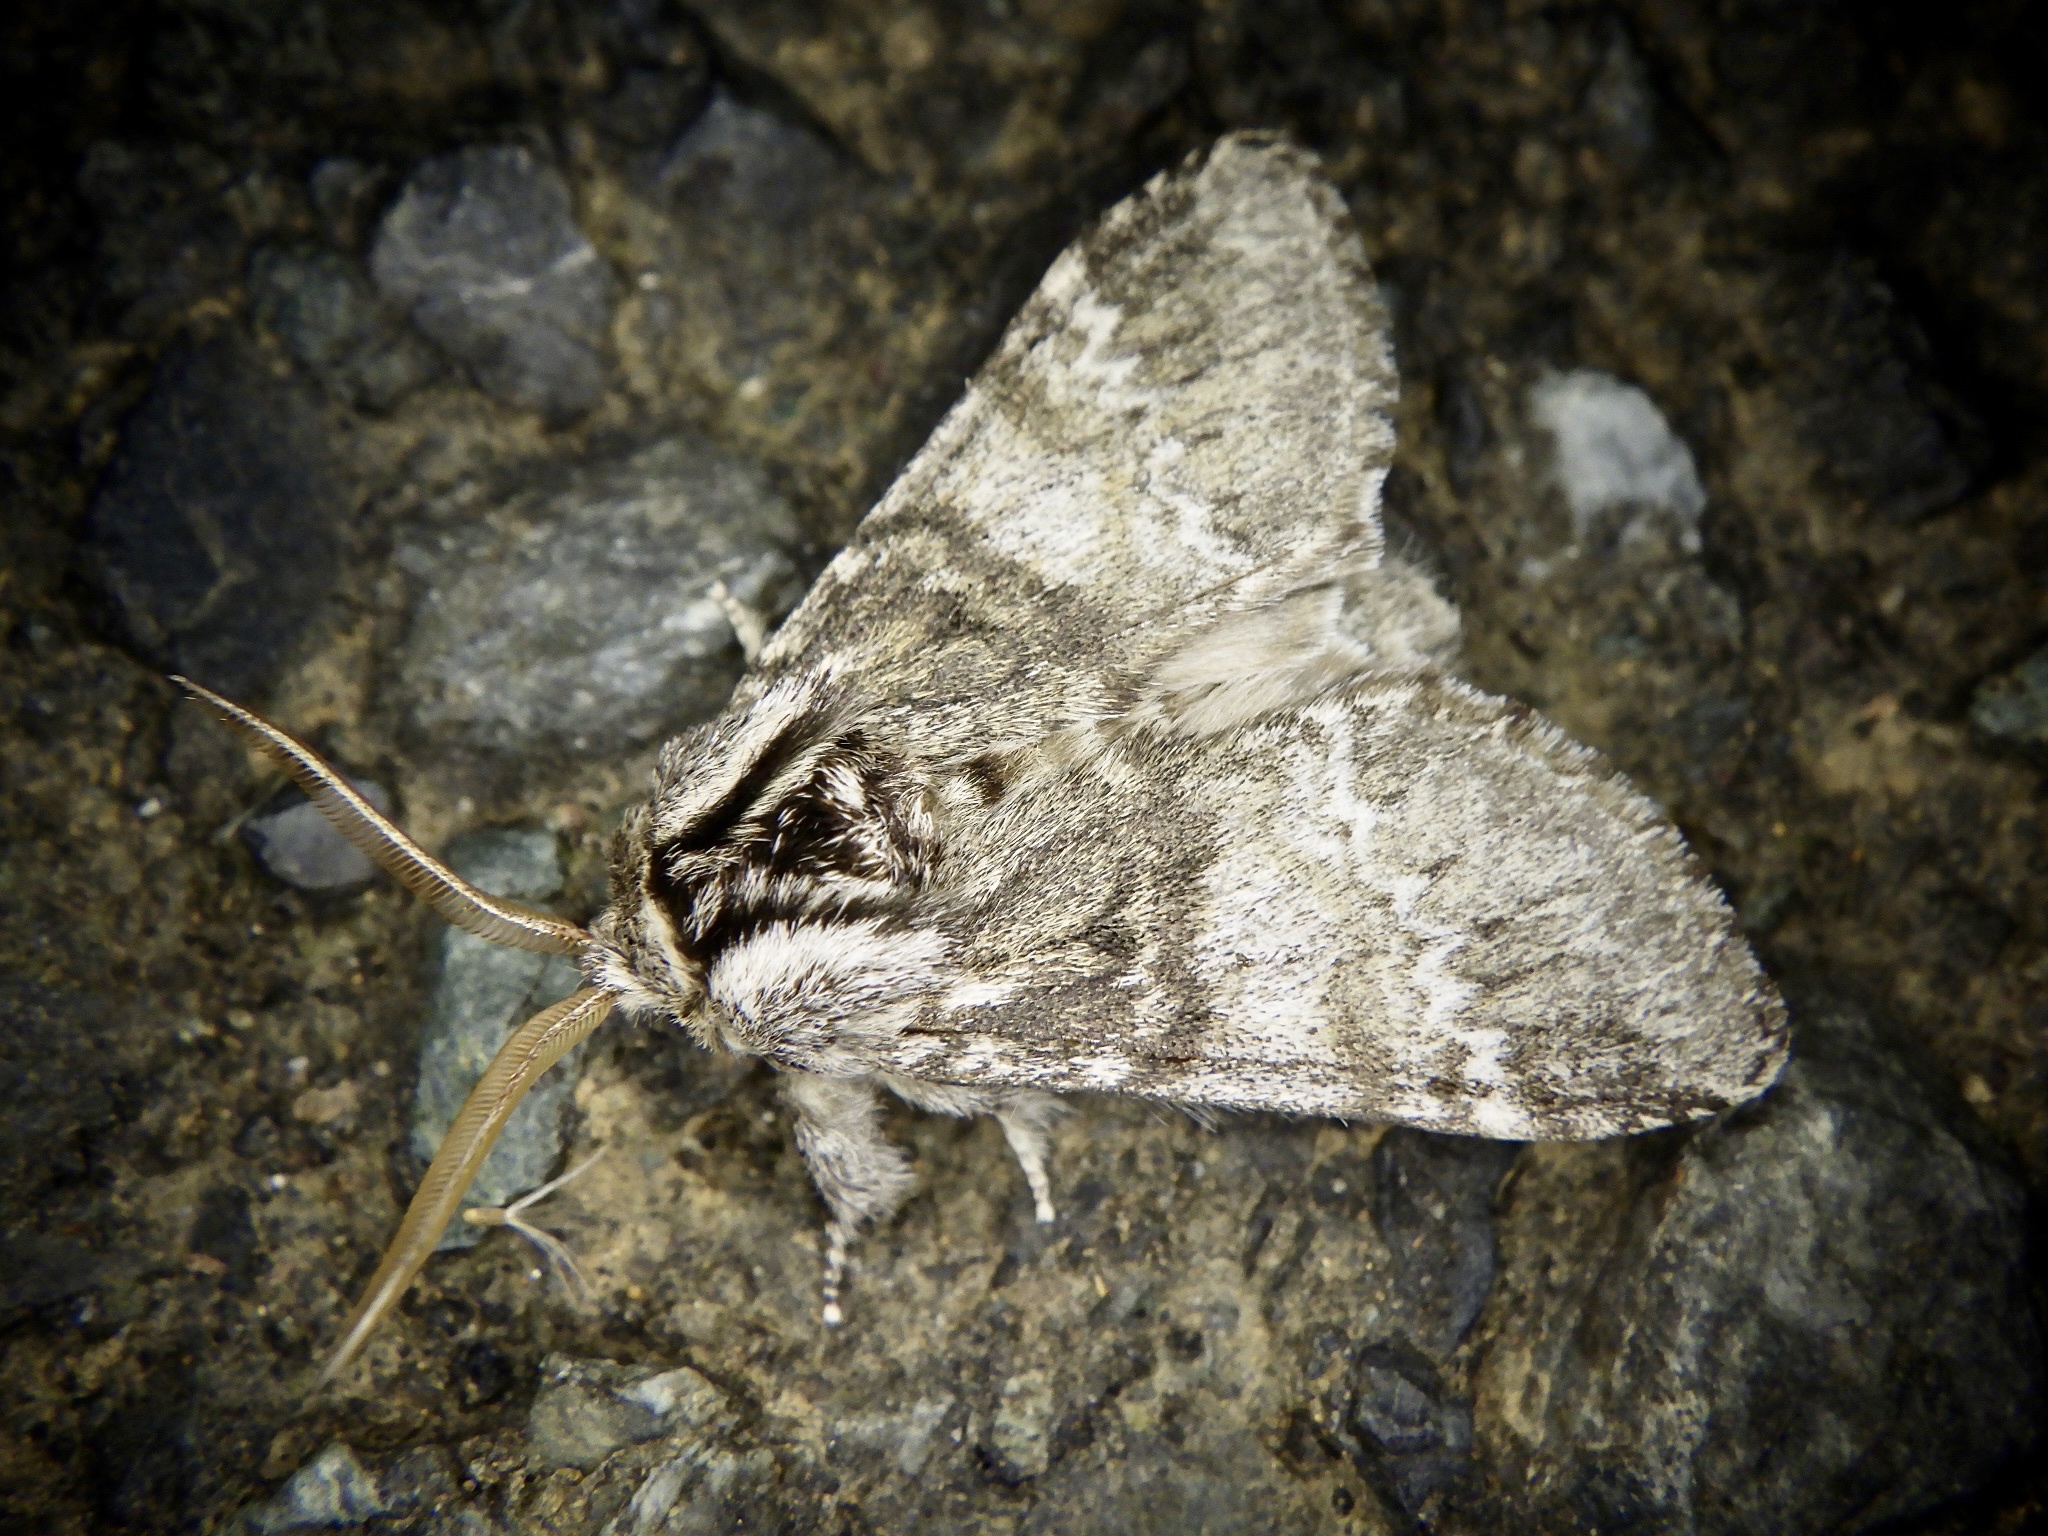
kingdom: Animalia
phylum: Arthropoda
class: Insecta
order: Lepidoptera
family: Notodontidae
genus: Drymonia
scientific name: Drymonia basalis
